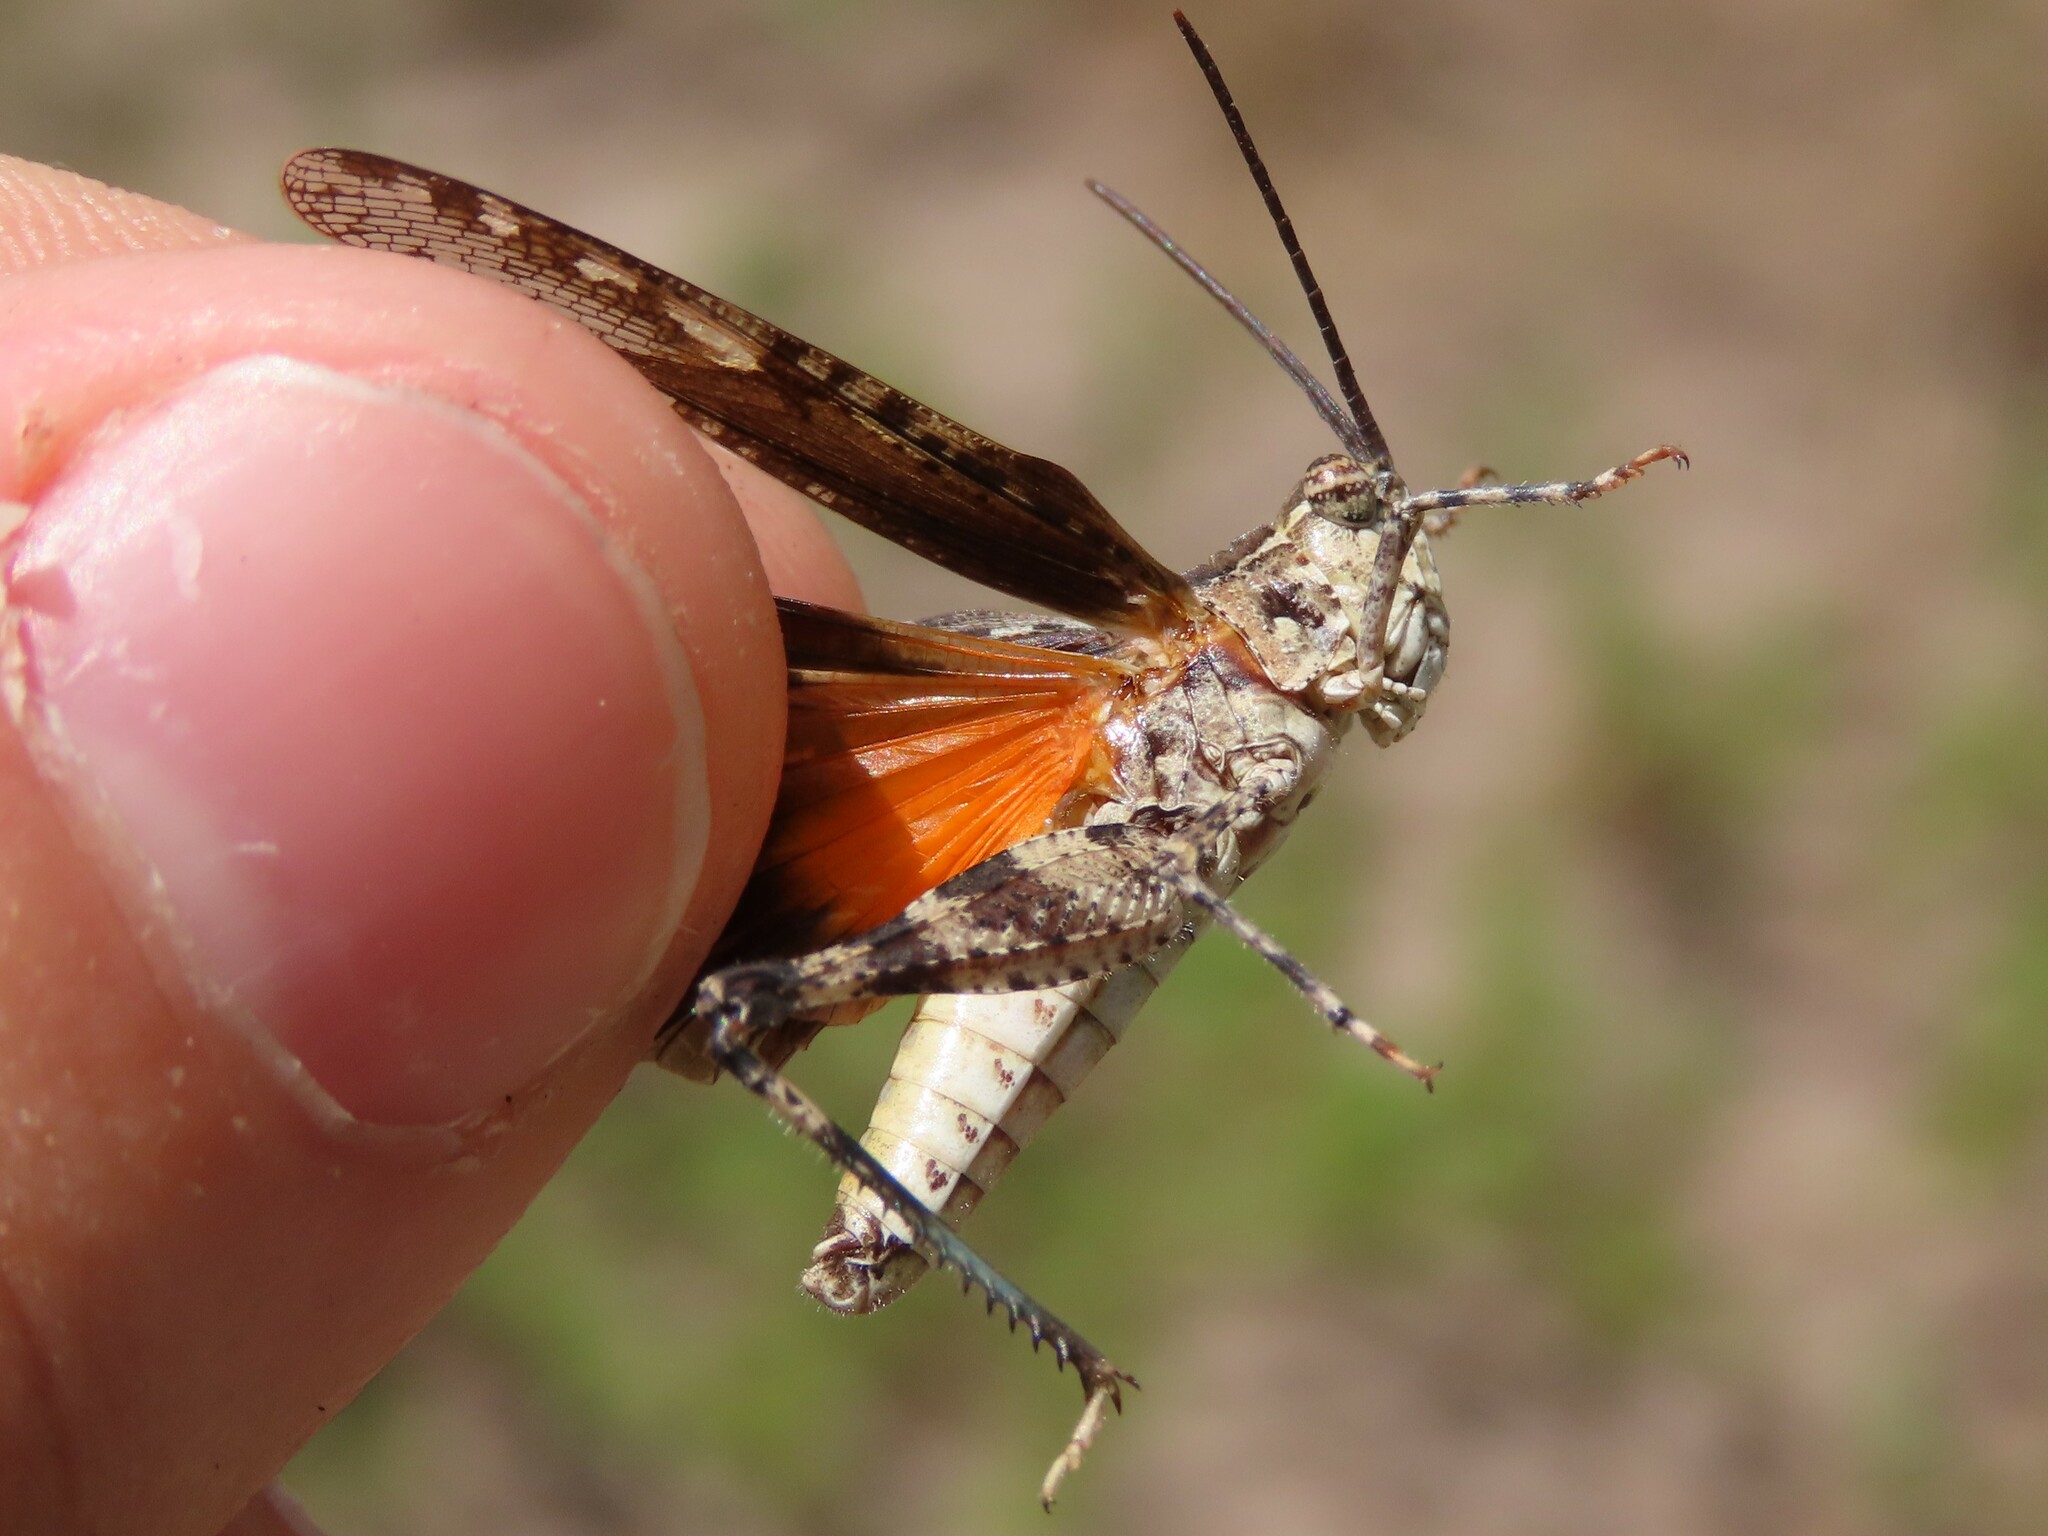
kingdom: Animalia
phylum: Arthropoda
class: Insecta
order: Orthoptera
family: Acrididae
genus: Psinidia
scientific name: Psinidia fenestralis
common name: Long-horned locust
